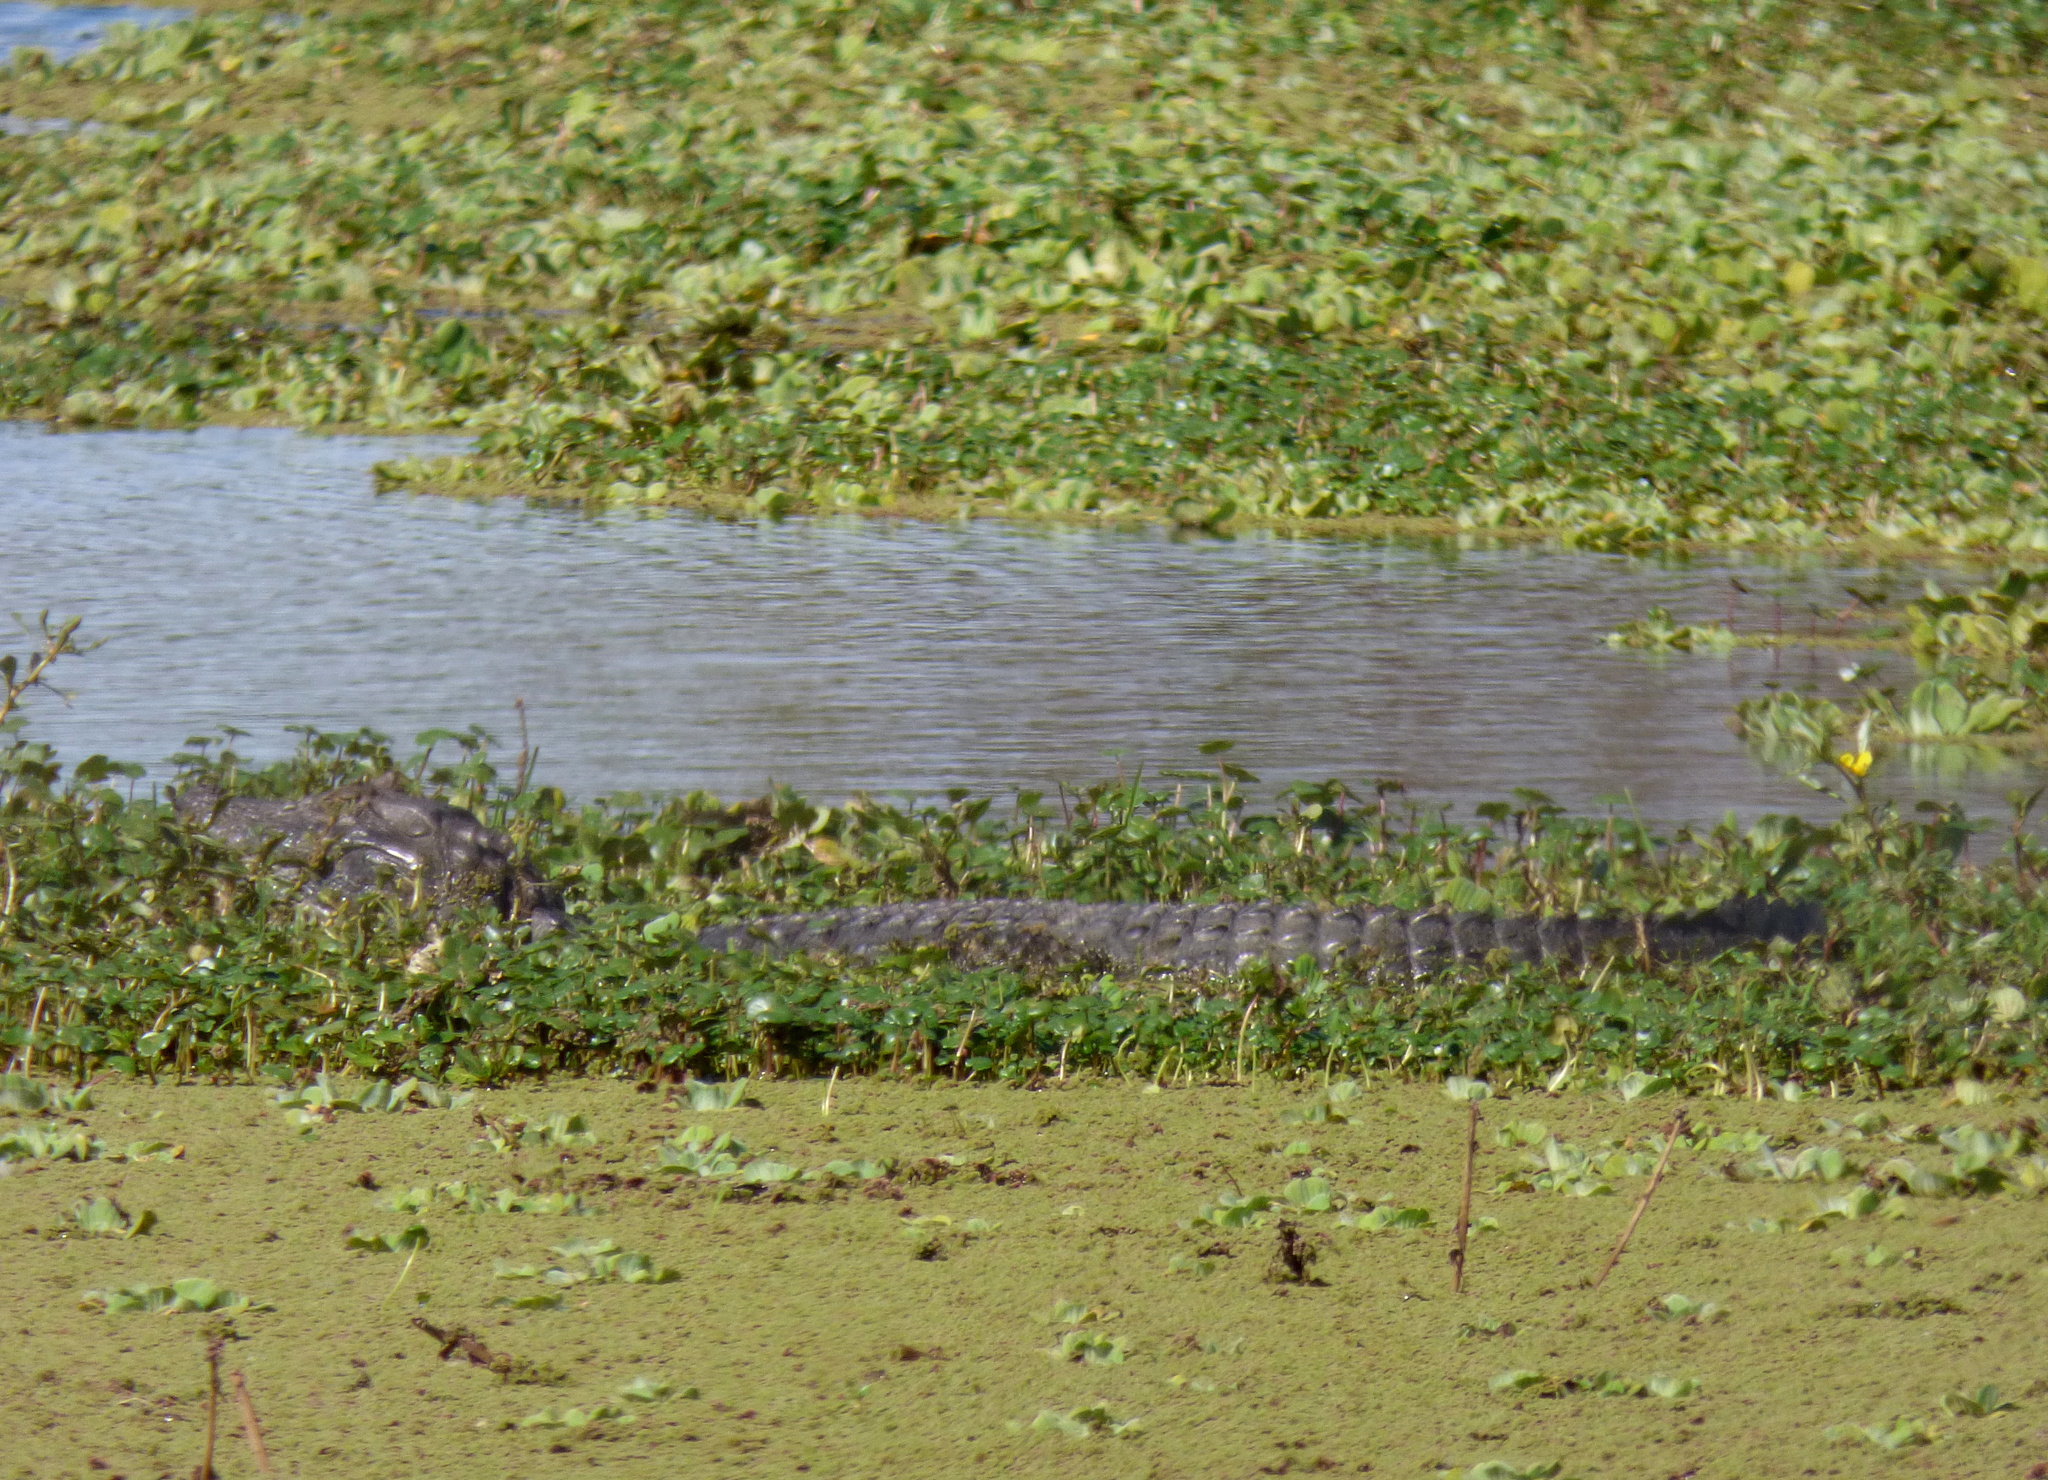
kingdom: Animalia
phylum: Chordata
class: Crocodylia
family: Alligatoridae
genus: Caiman
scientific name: Caiman latirostris
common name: Broad-snouted caiman
